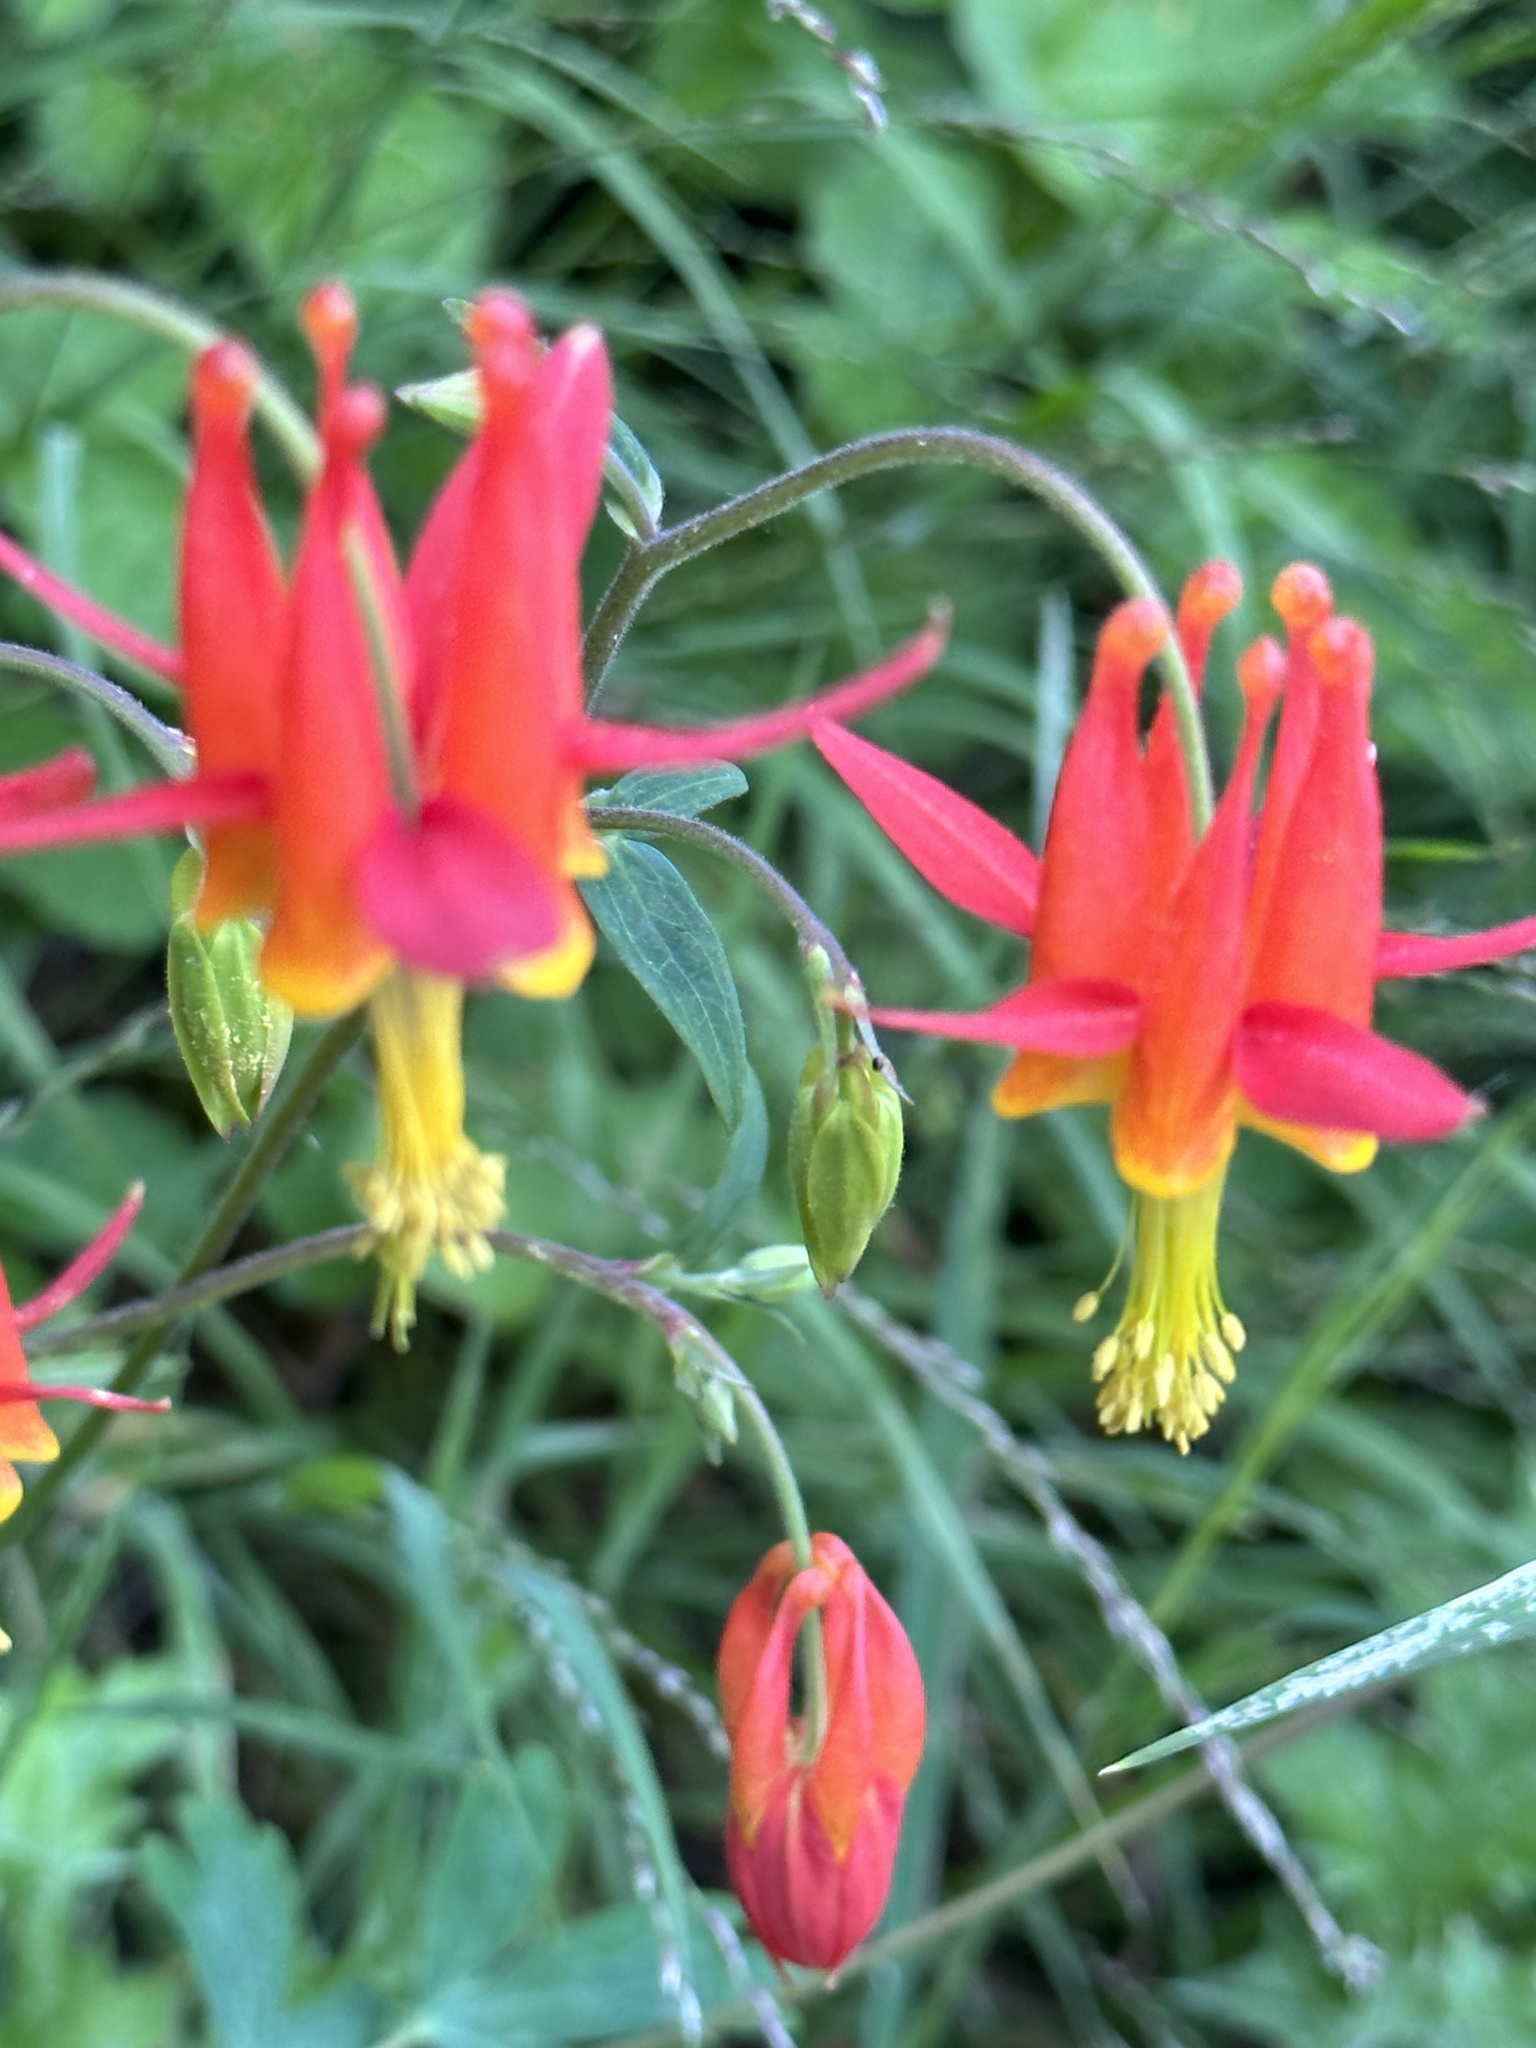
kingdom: Plantae
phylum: Tracheophyta
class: Magnoliopsida
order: Ranunculales
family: Ranunculaceae
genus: Aquilegia
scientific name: Aquilegia formosa
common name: Sitka columbine
